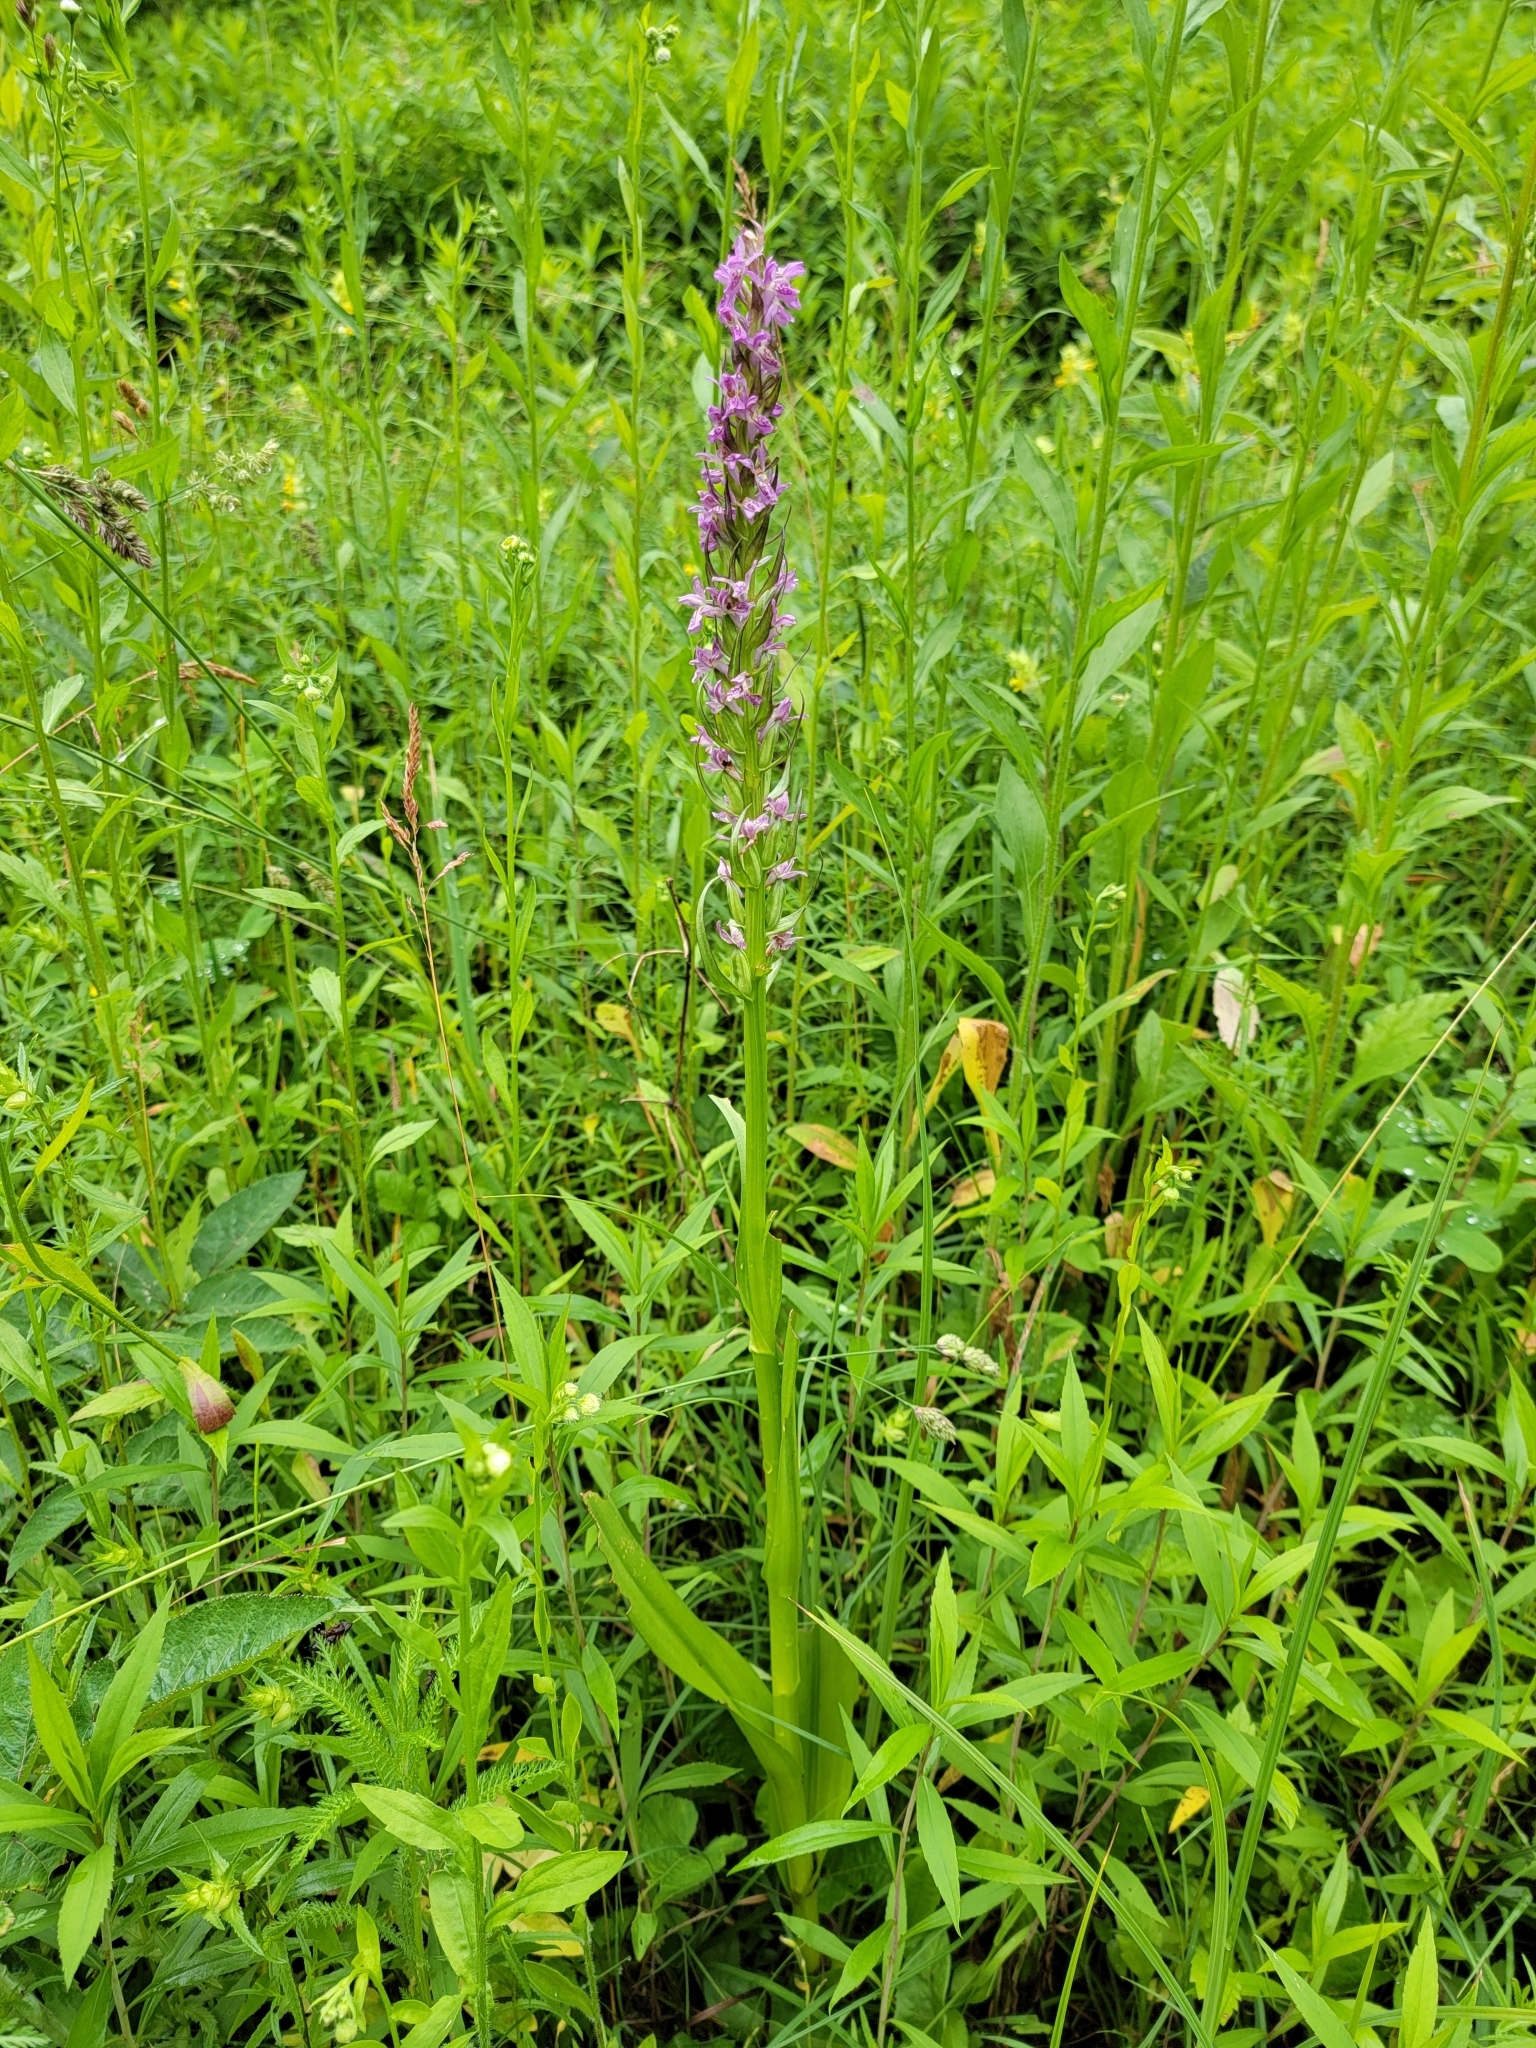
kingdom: Plantae
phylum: Tracheophyta
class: Liliopsida
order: Asparagales
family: Orchidaceae
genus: Dactylorhiza
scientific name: Dactylorhiza incarnata
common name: Early marsh-orchid
